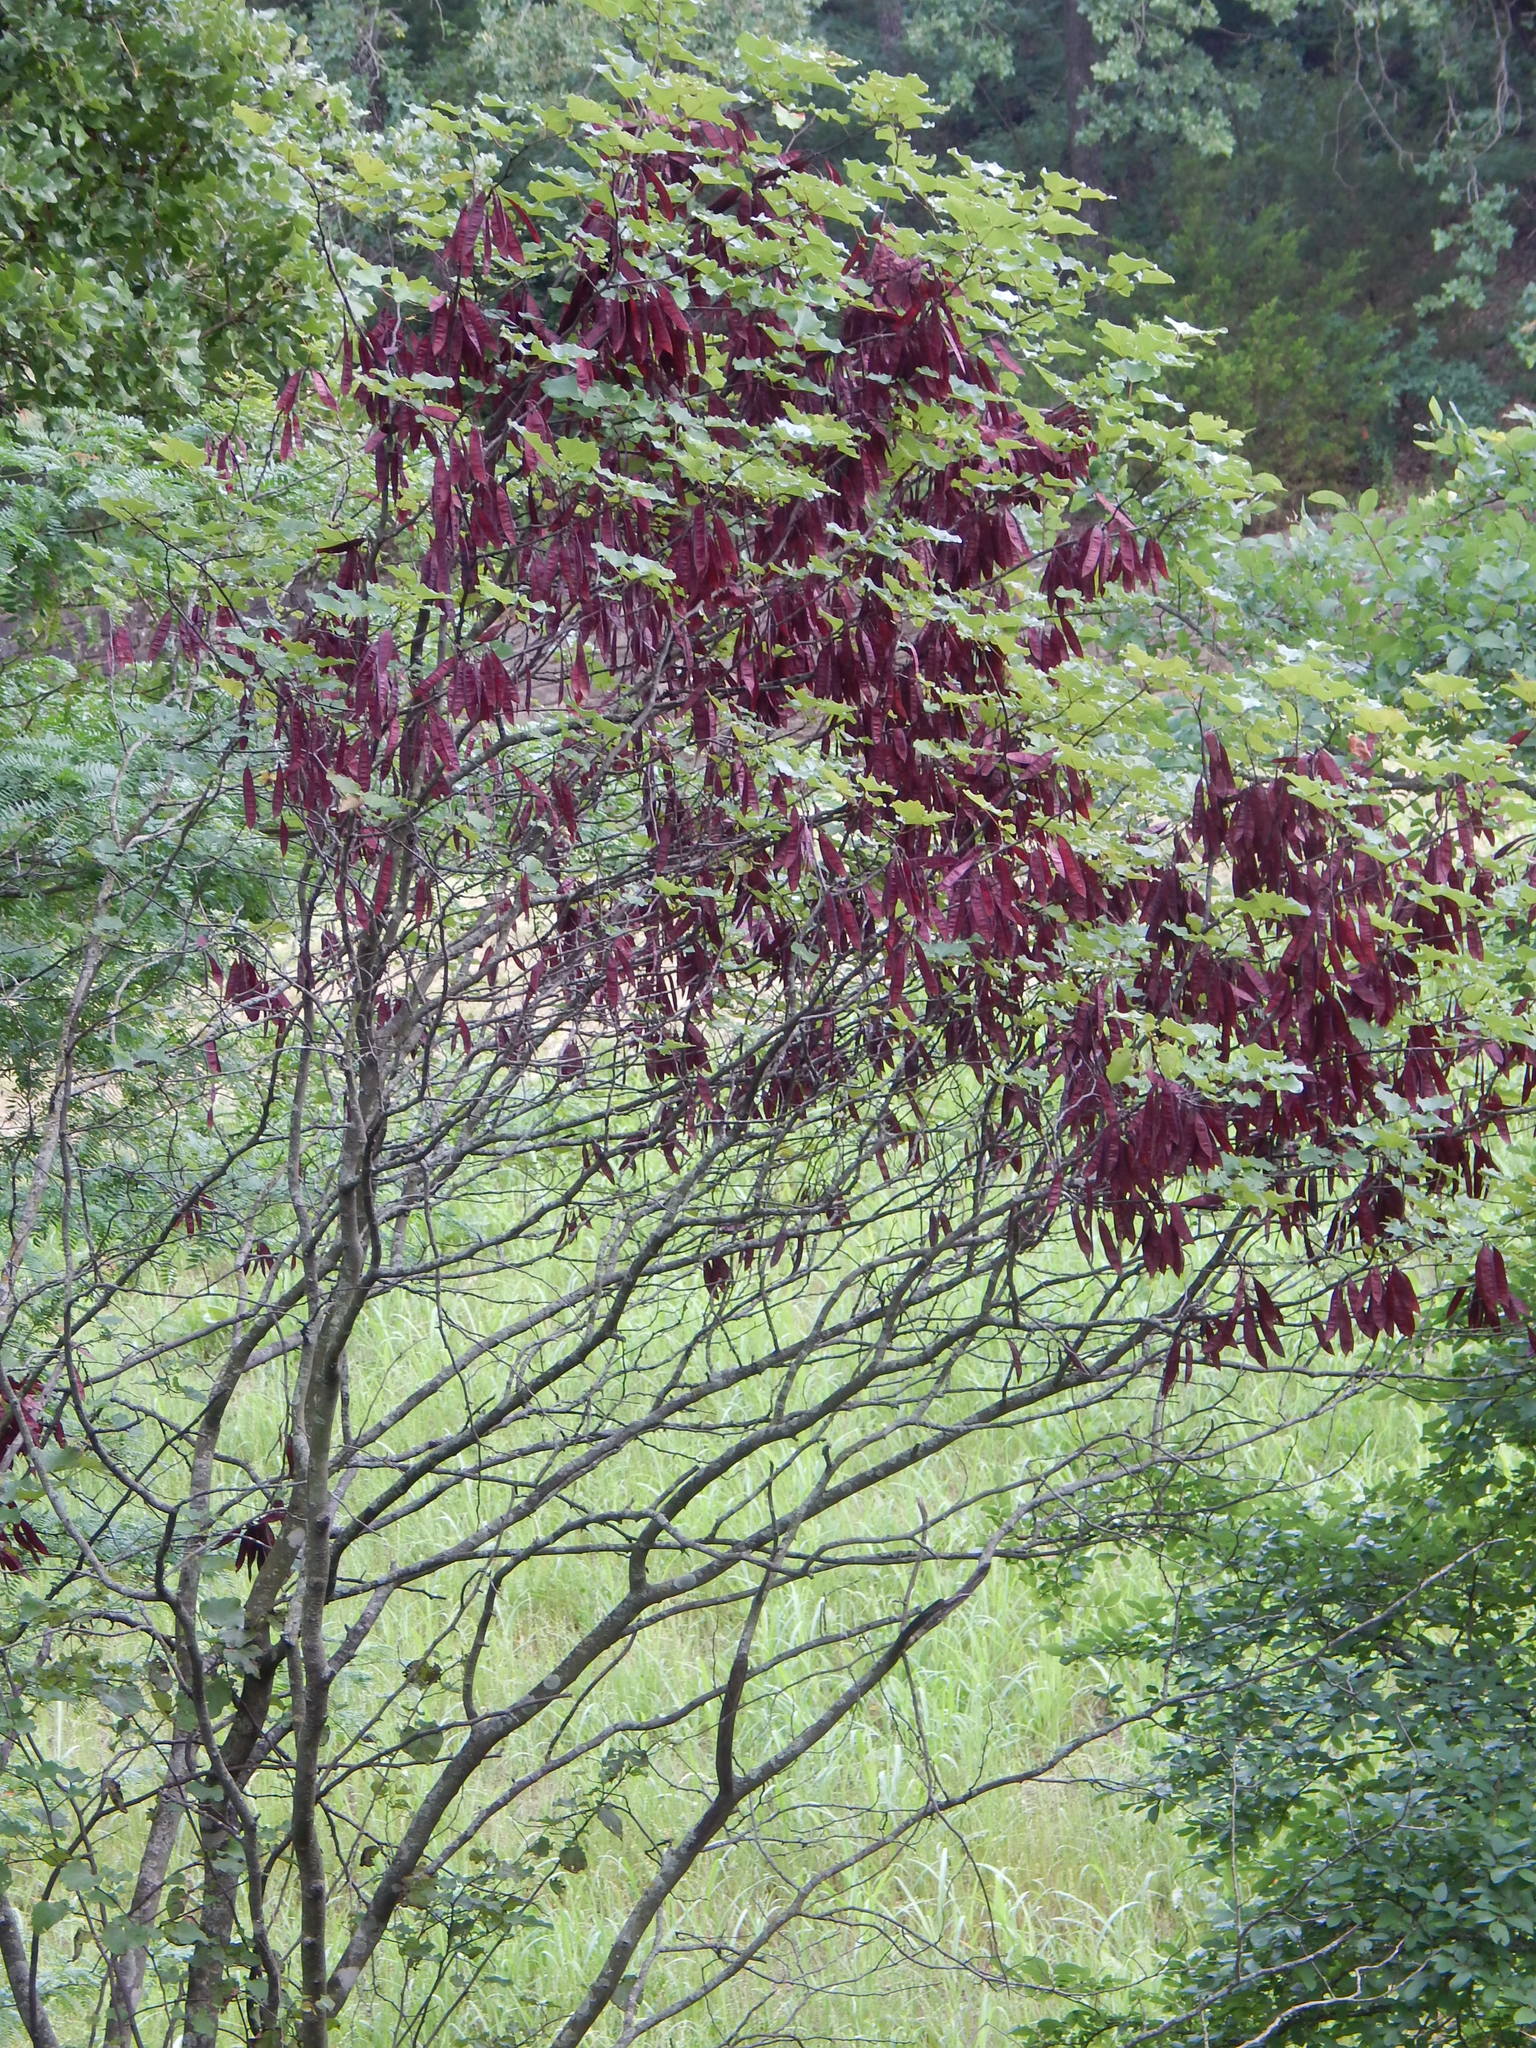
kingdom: Plantae
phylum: Tracheophyta
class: Magnoliopsida
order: Fabales
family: Fabaceae
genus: Cercis
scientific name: Cercis canadensis
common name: Eastern redbud
